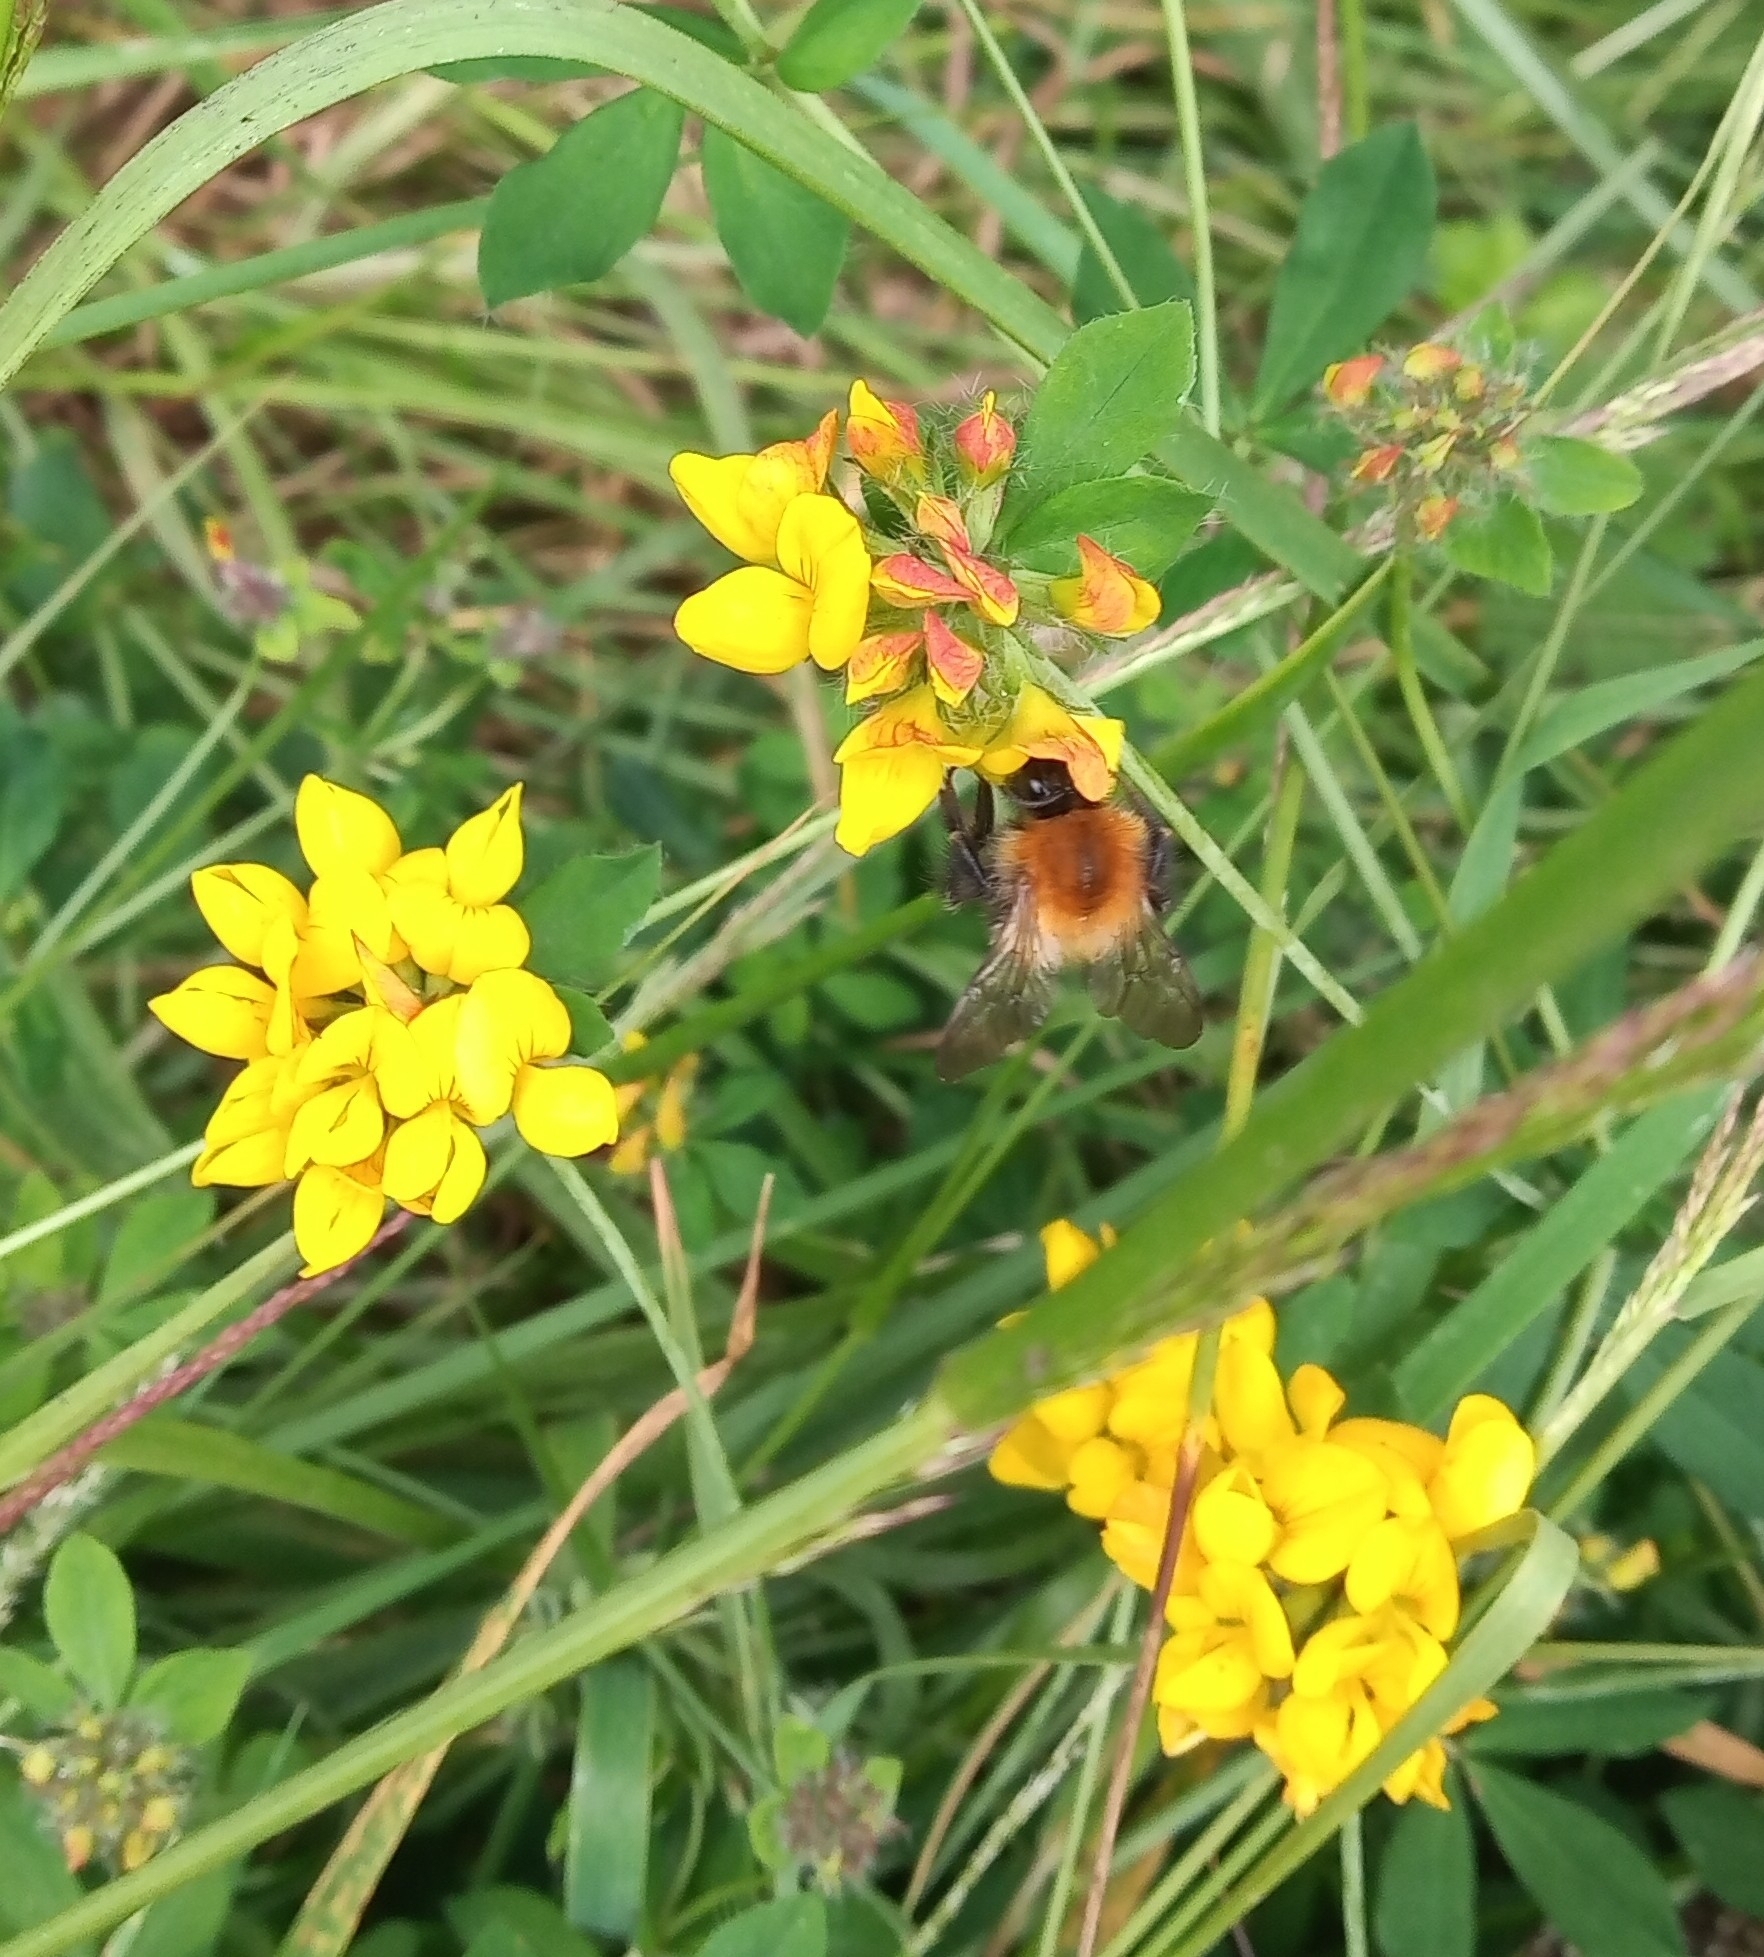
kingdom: Animalia
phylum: Arthropoda
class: Insecta
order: Hymenoptera
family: Apidae
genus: Bombus
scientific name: Bombus pascuorum
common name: Common carder bee
